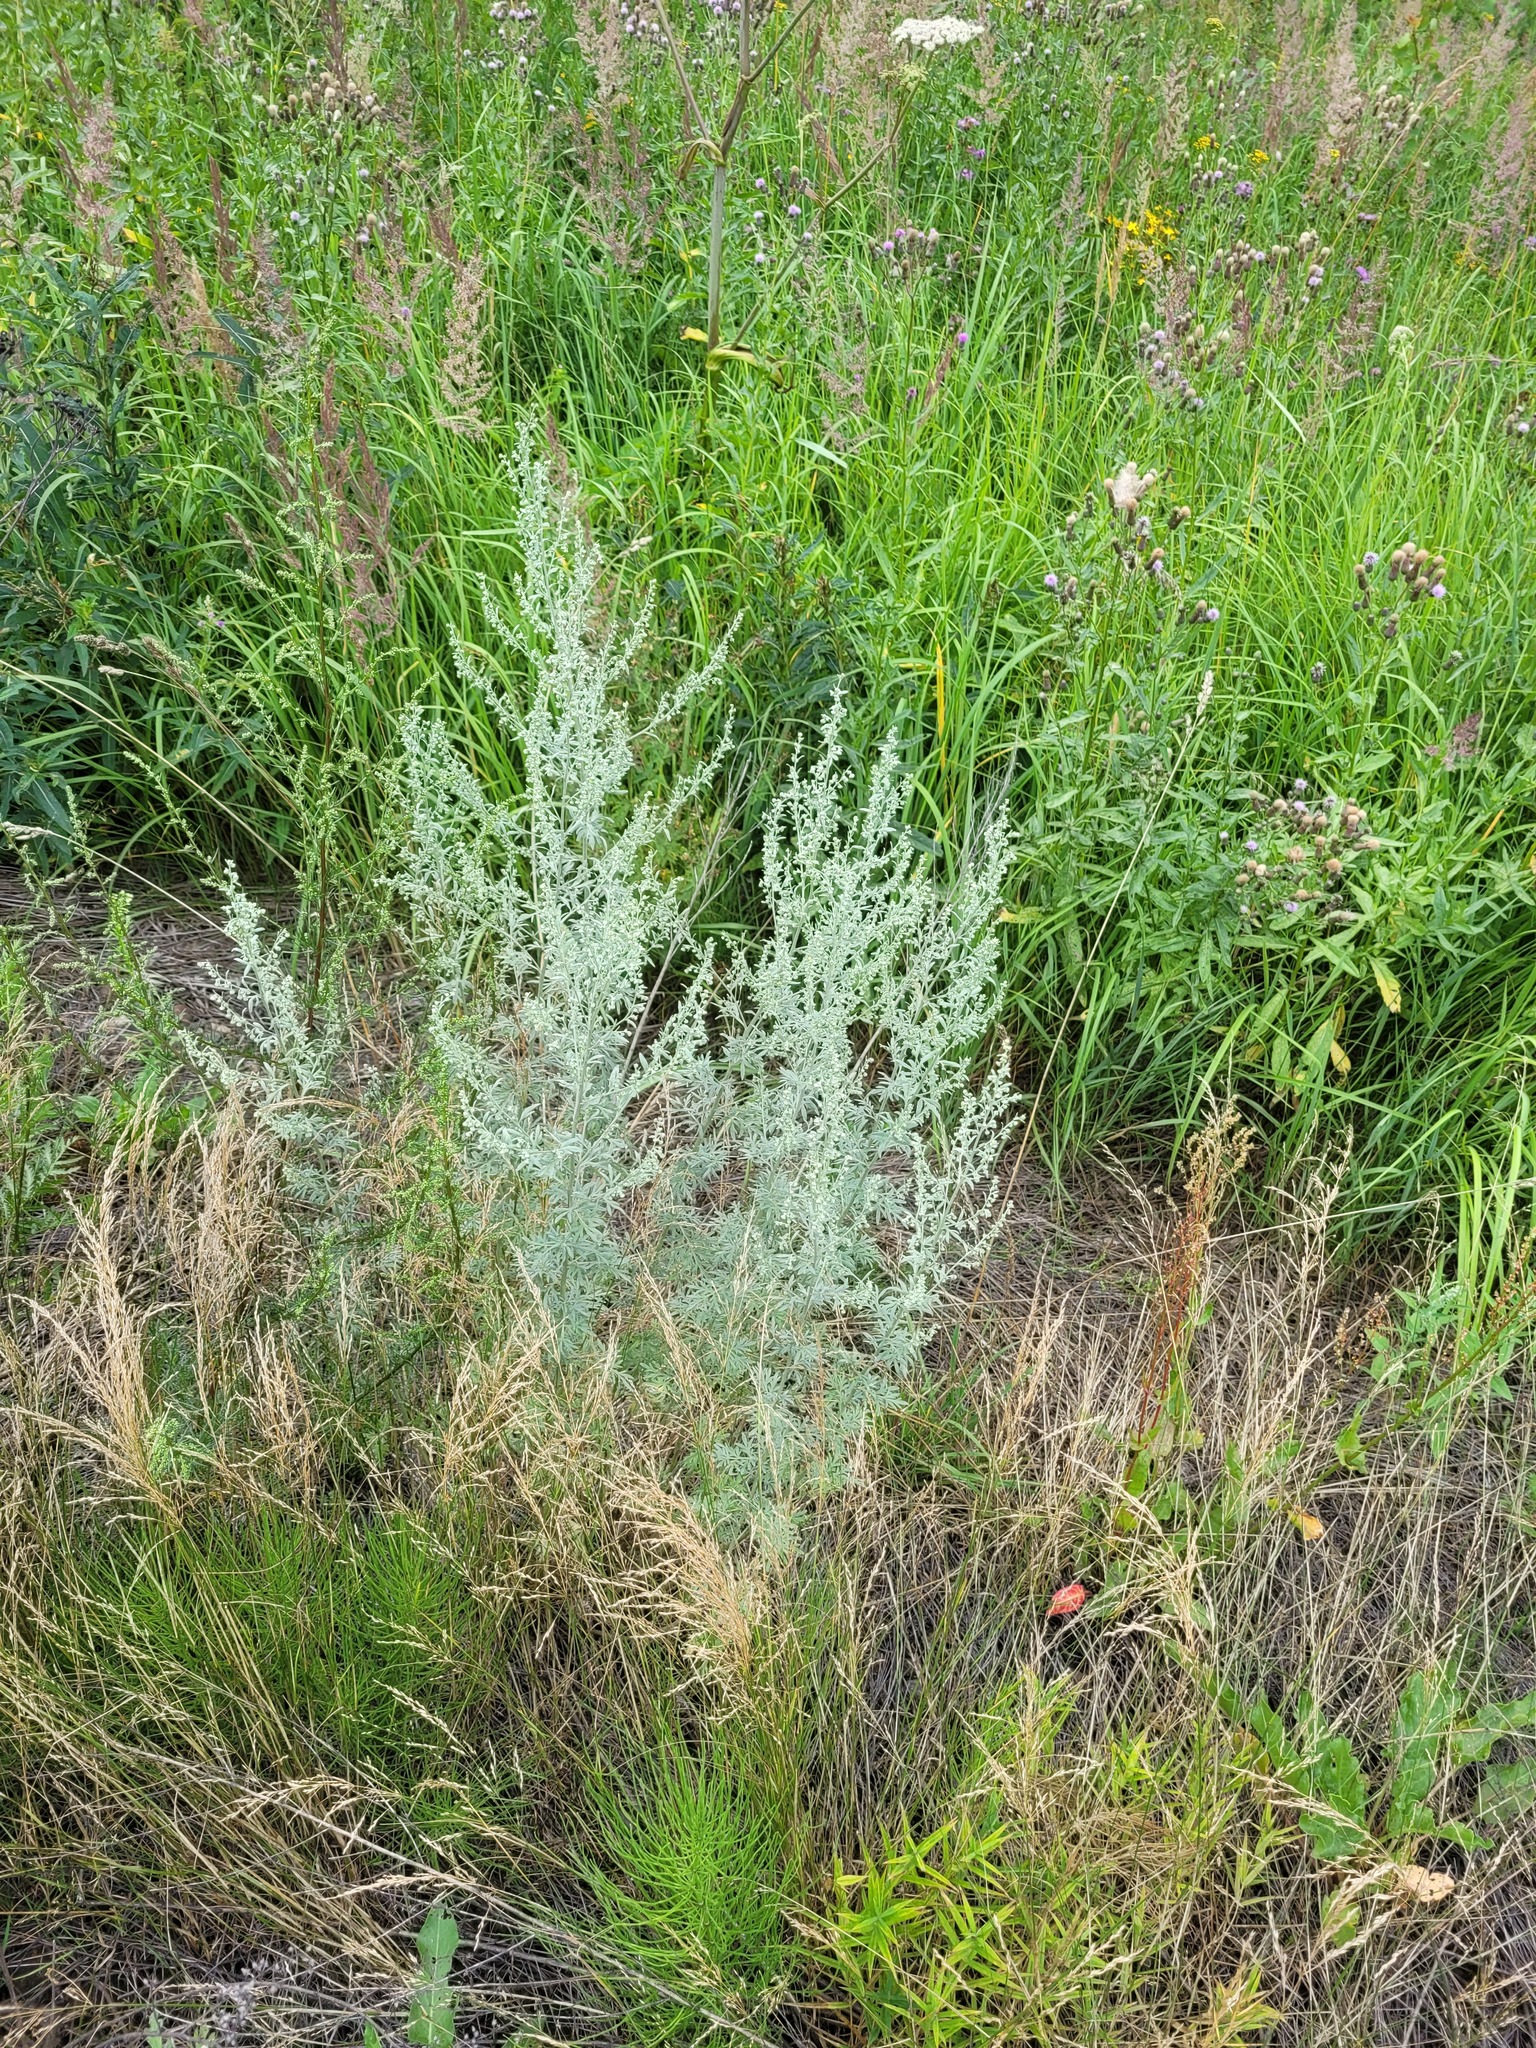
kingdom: Plantae
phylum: Tracheophyta
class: Magnoliopsida
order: Asterales
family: Asteraceae
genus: Artemisia
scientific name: Artemisia absinthium
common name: Wormwood
